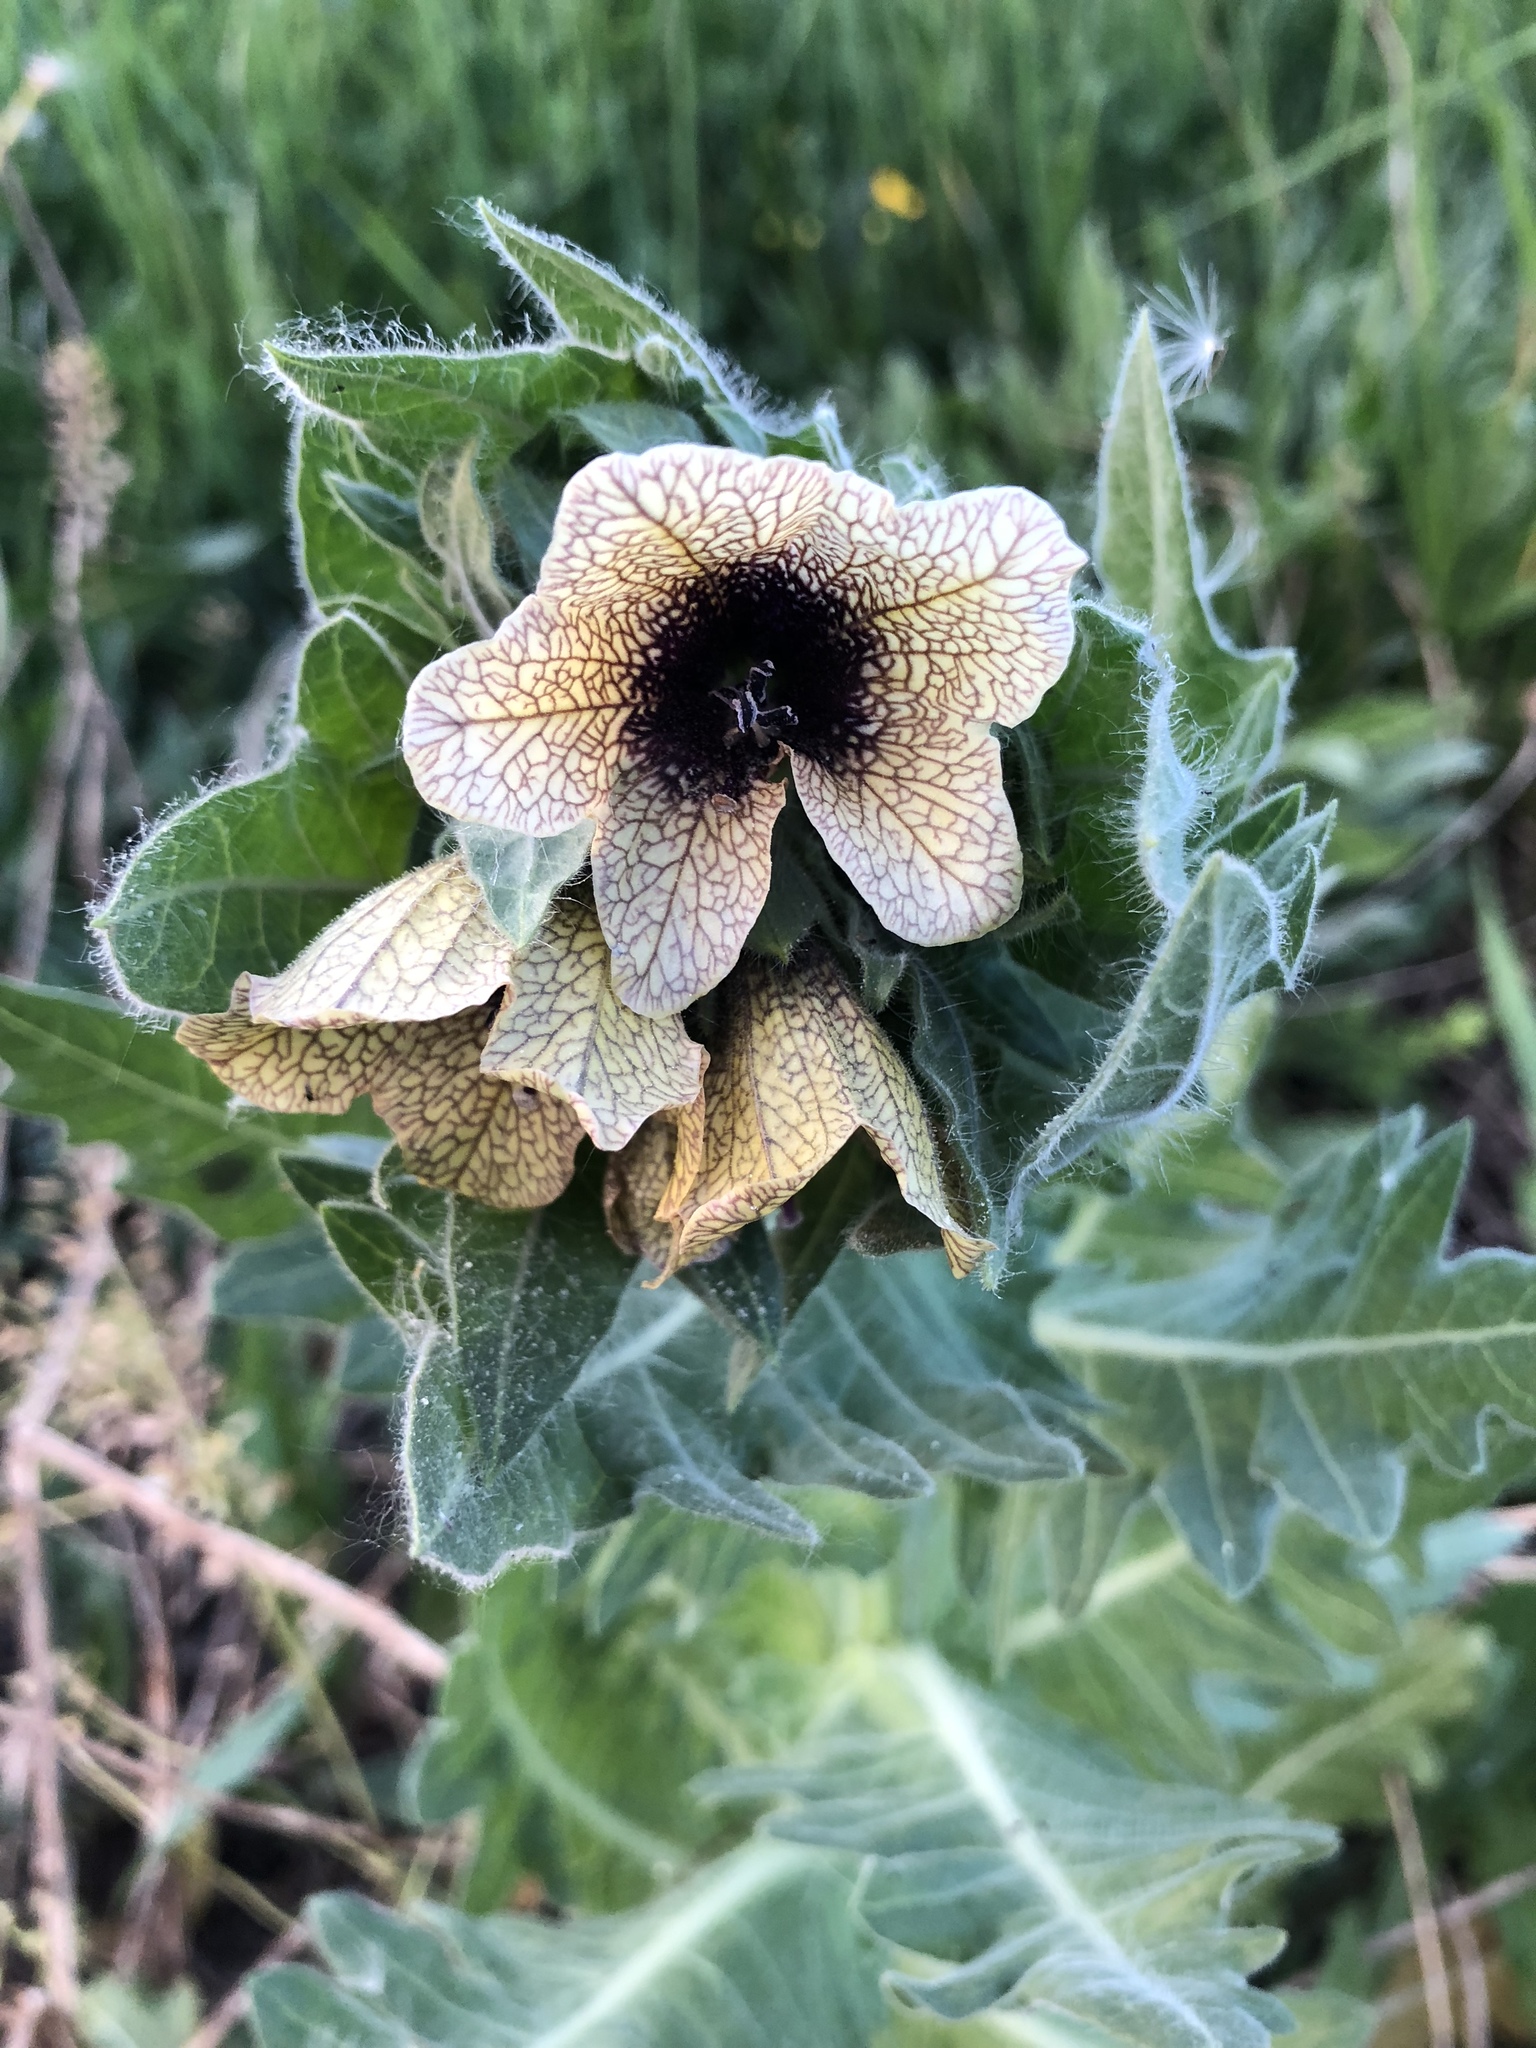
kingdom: Plantae
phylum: Tracheophyta
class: Magnoliopsida
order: Solanales
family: Solanaceae
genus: Hyoscyamus
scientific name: Hyoscyamus niger
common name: Henbane
